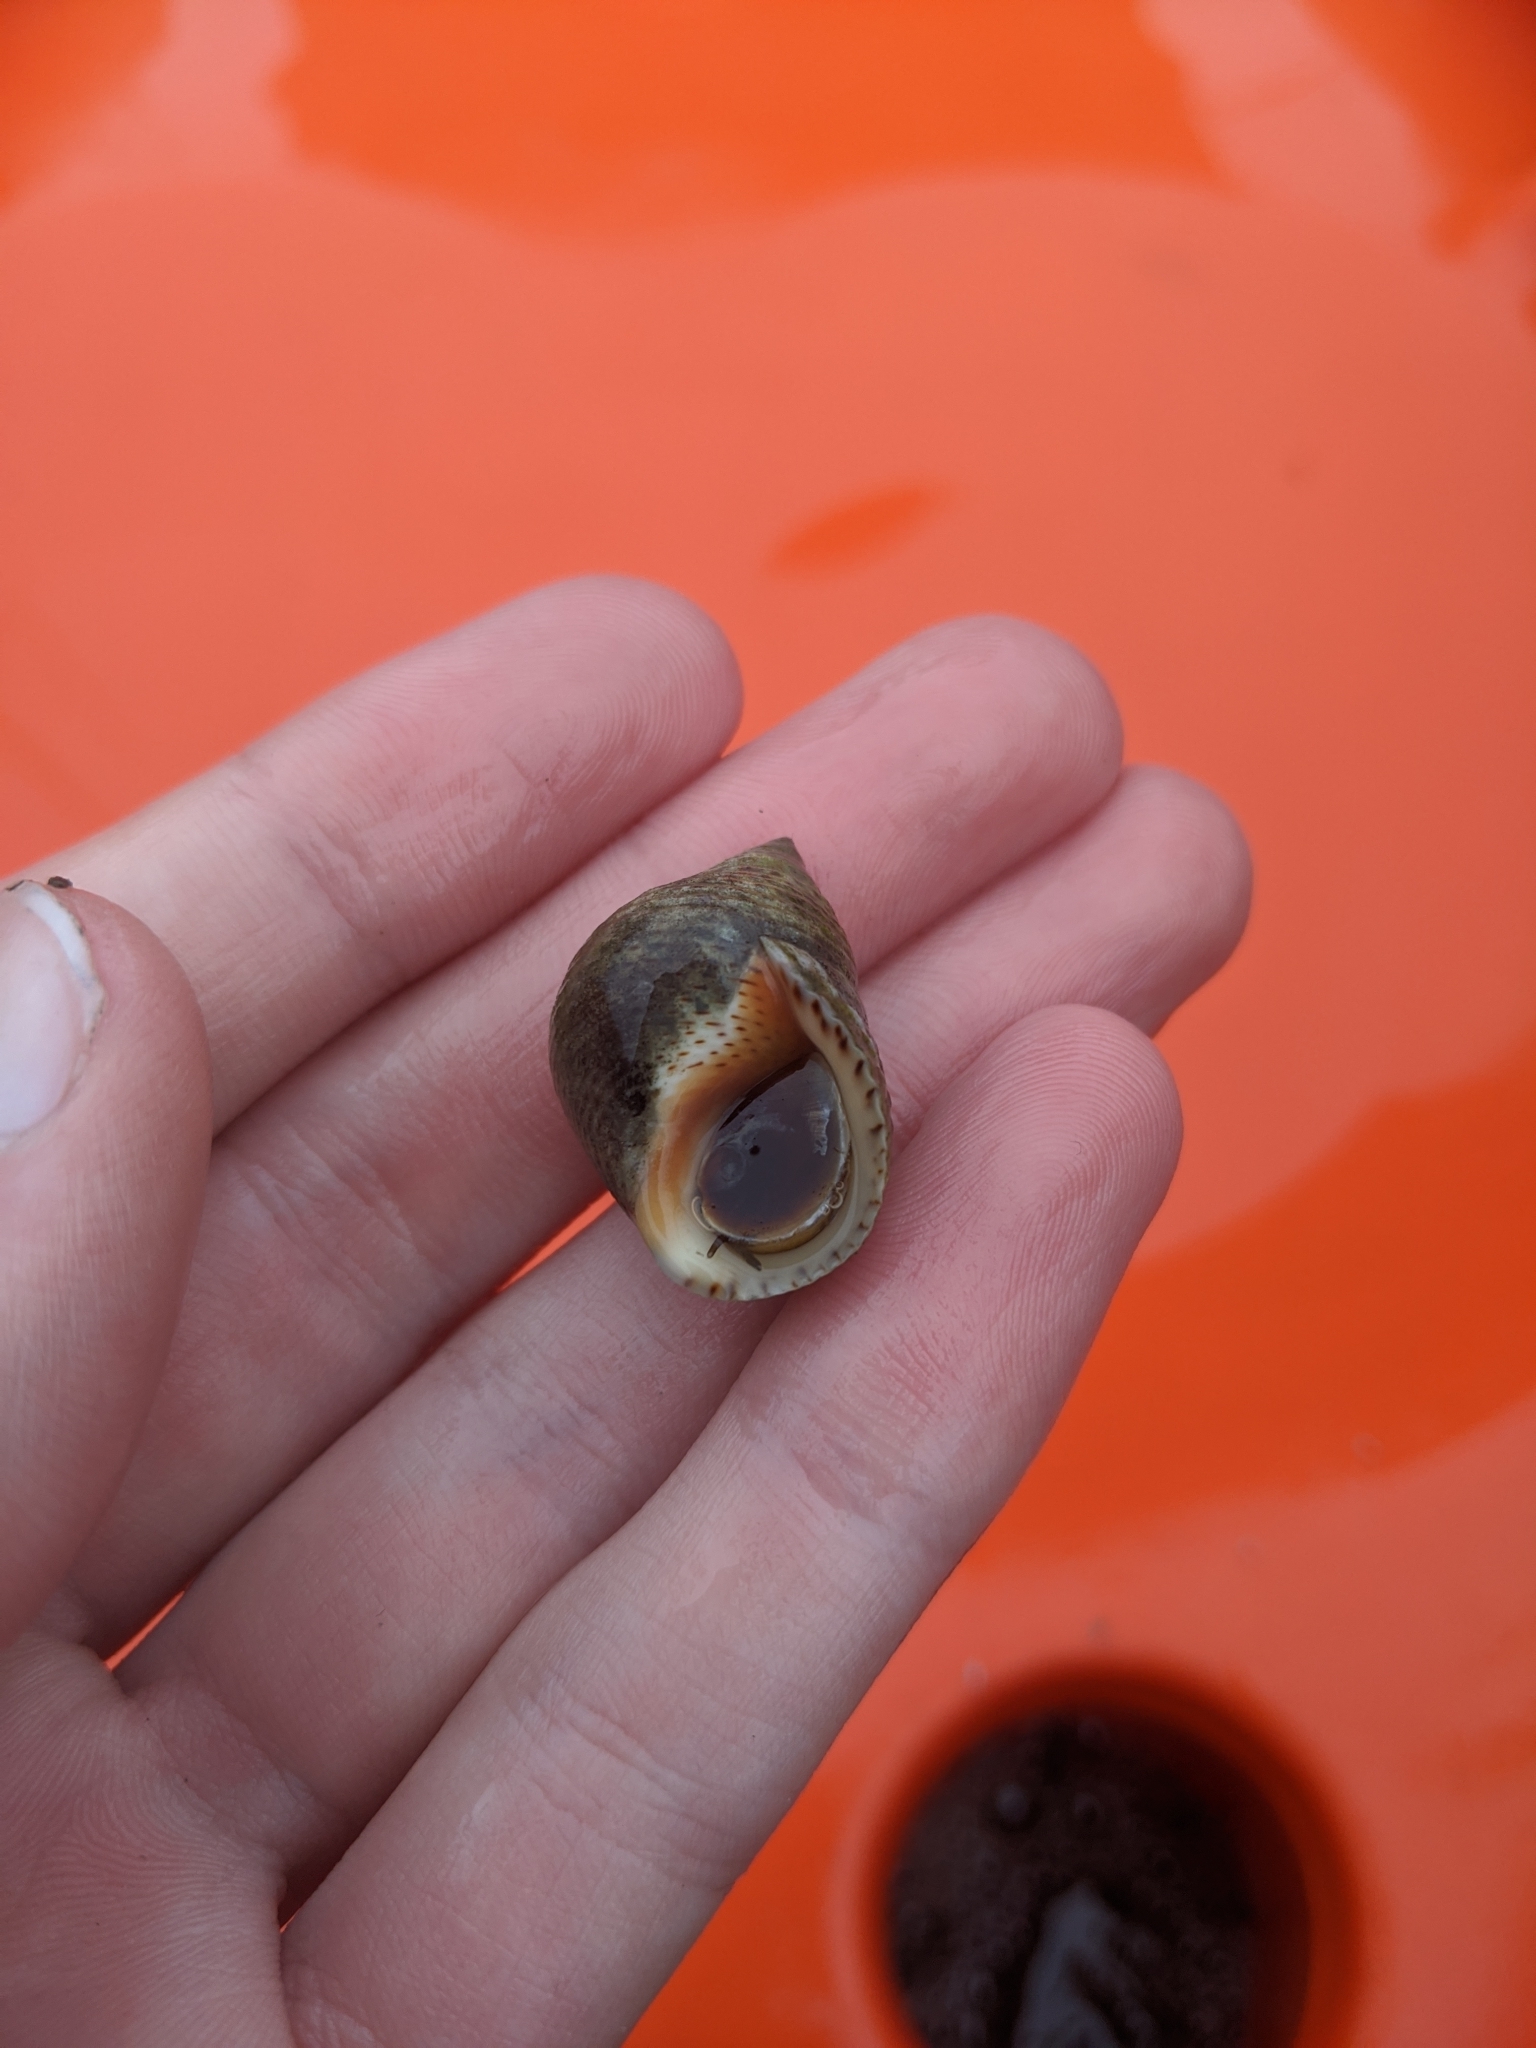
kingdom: Animalia
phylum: Mollusca
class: Gastropoda
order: Littorinimorpha
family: Littorinidae
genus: Littoraria
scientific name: Littoraria irrorata
